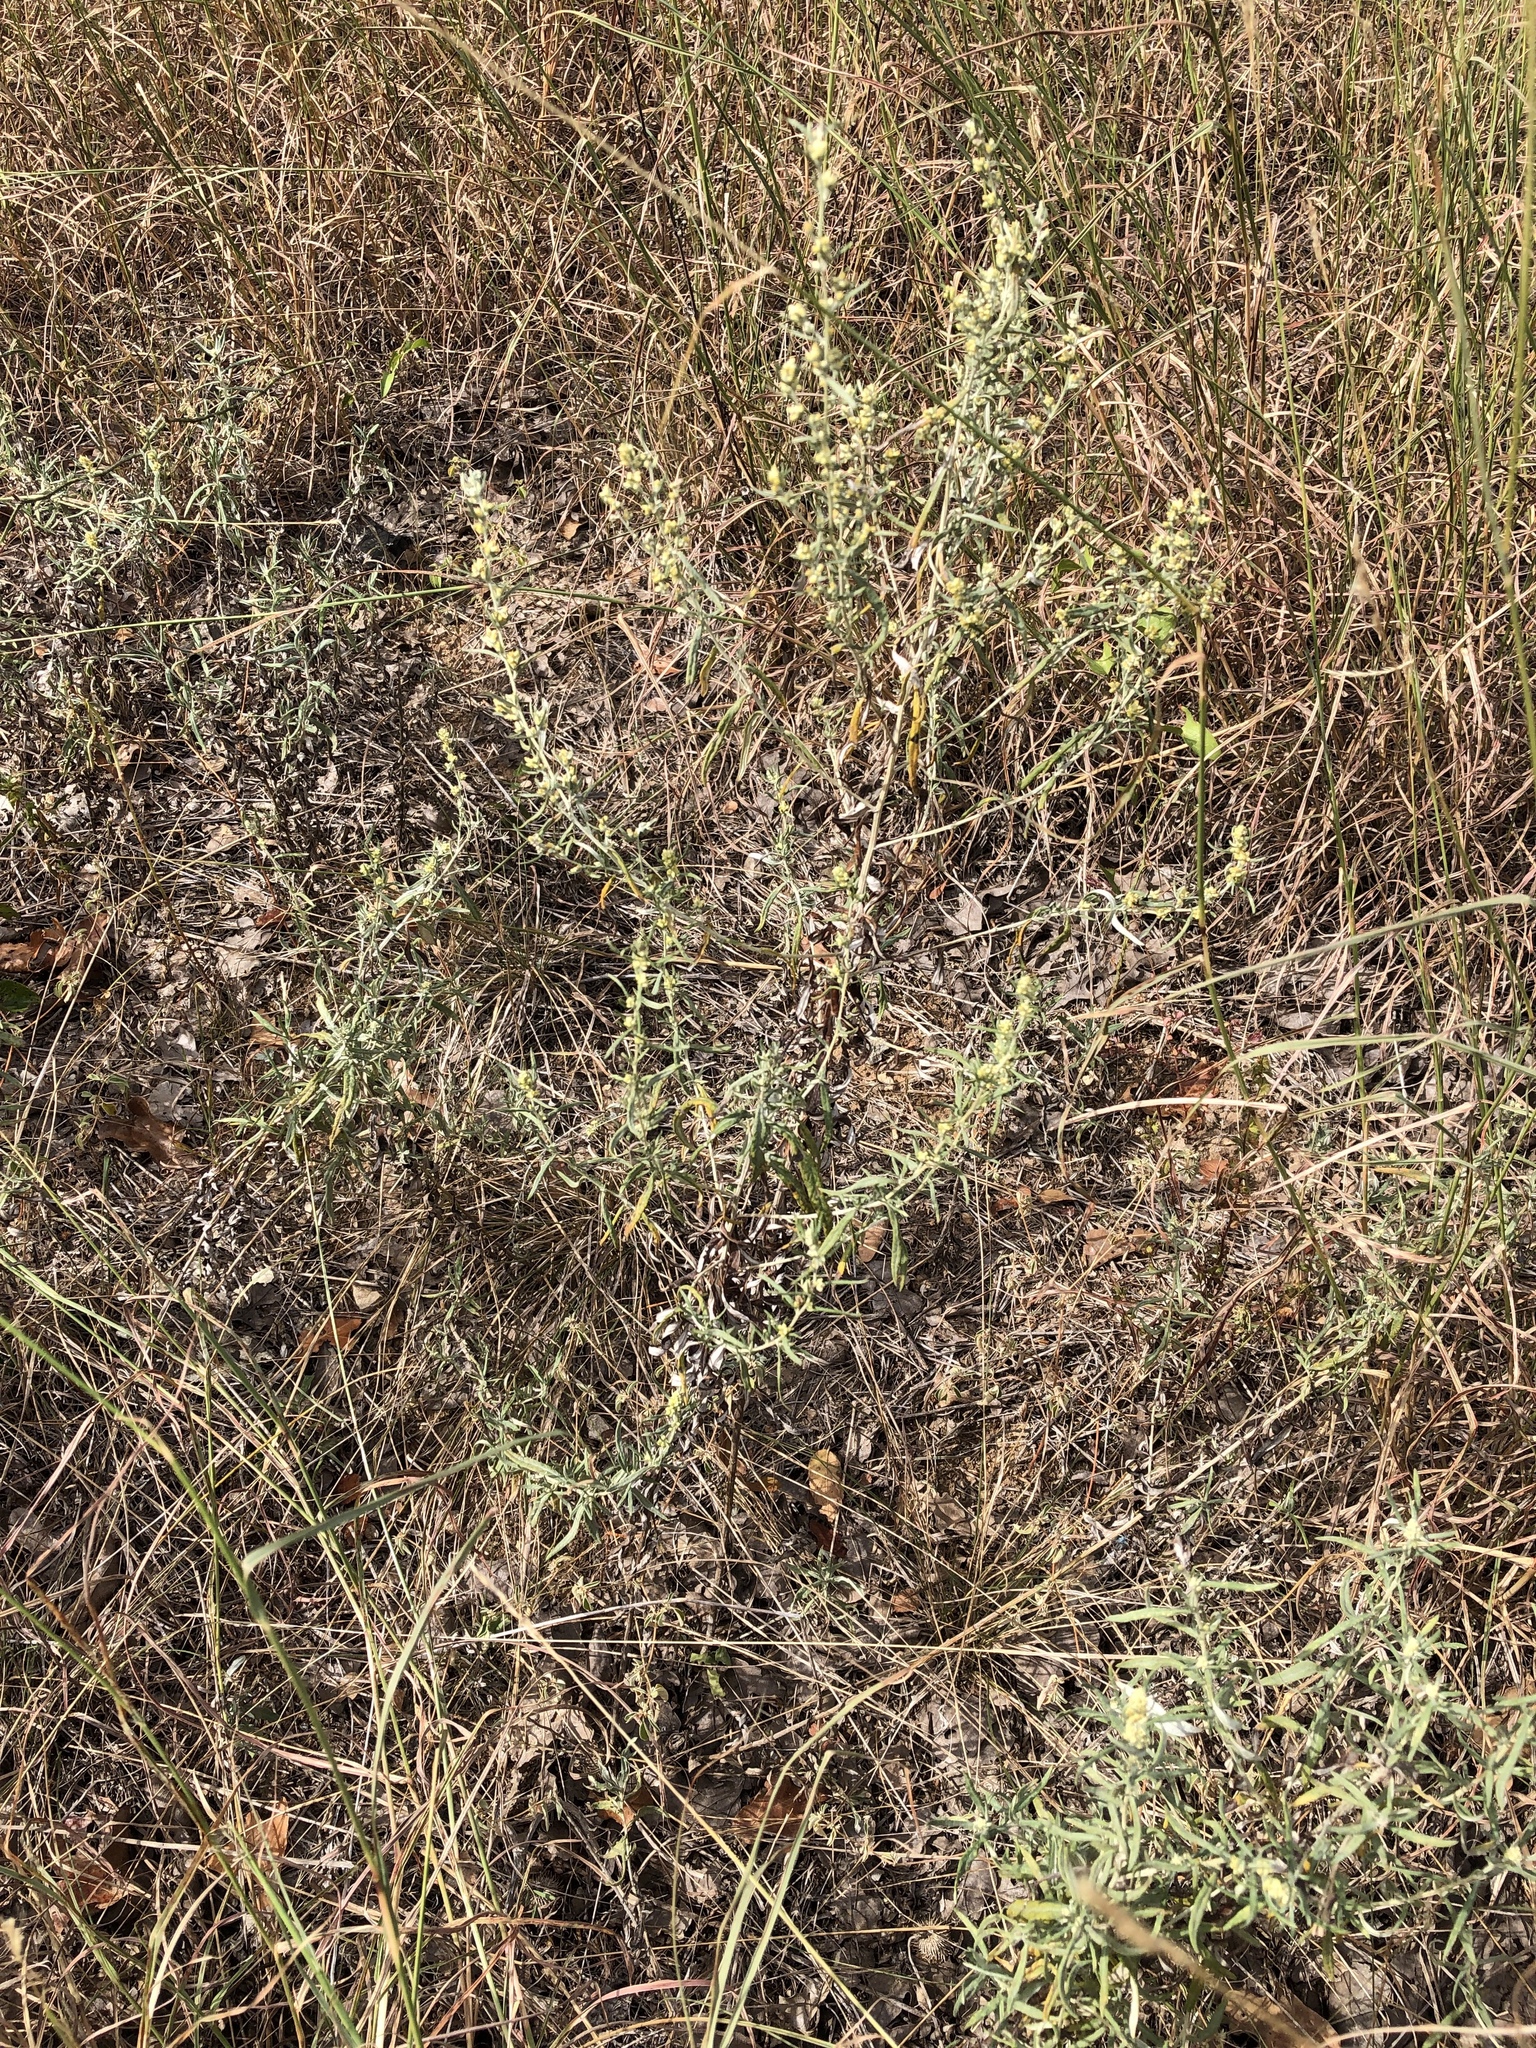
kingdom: Plantae
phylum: Tracheophyta
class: Magnoliopsida
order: Asterales
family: Asteraceae
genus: Artemisia
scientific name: Artemisia ludoviciana
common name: Western mugwort
